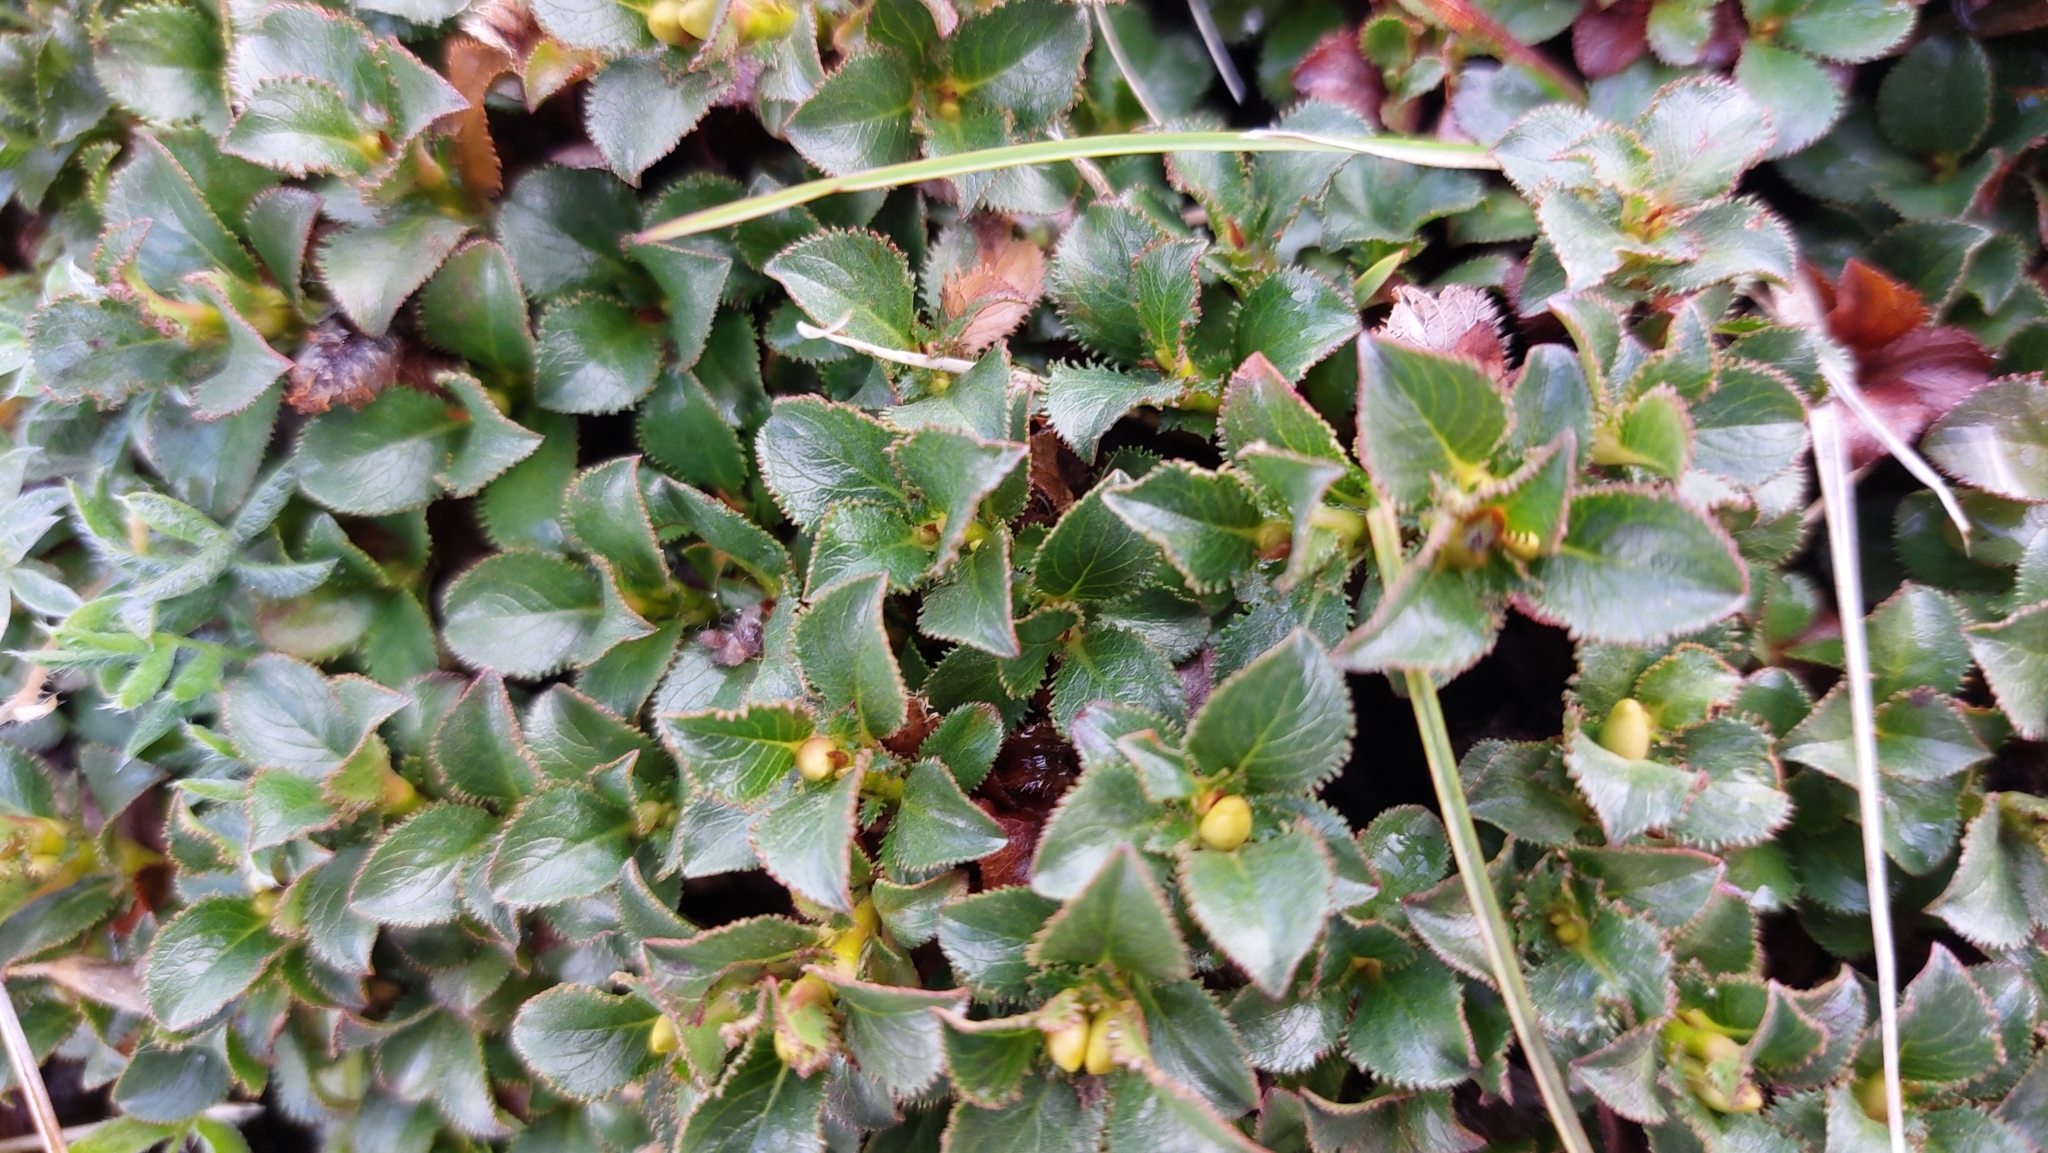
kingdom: Plantae
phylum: Tracheophyta
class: Magnoliopsida
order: Malpighiales
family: Salicaceae
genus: Salix
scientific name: Salix tschuktschorum
